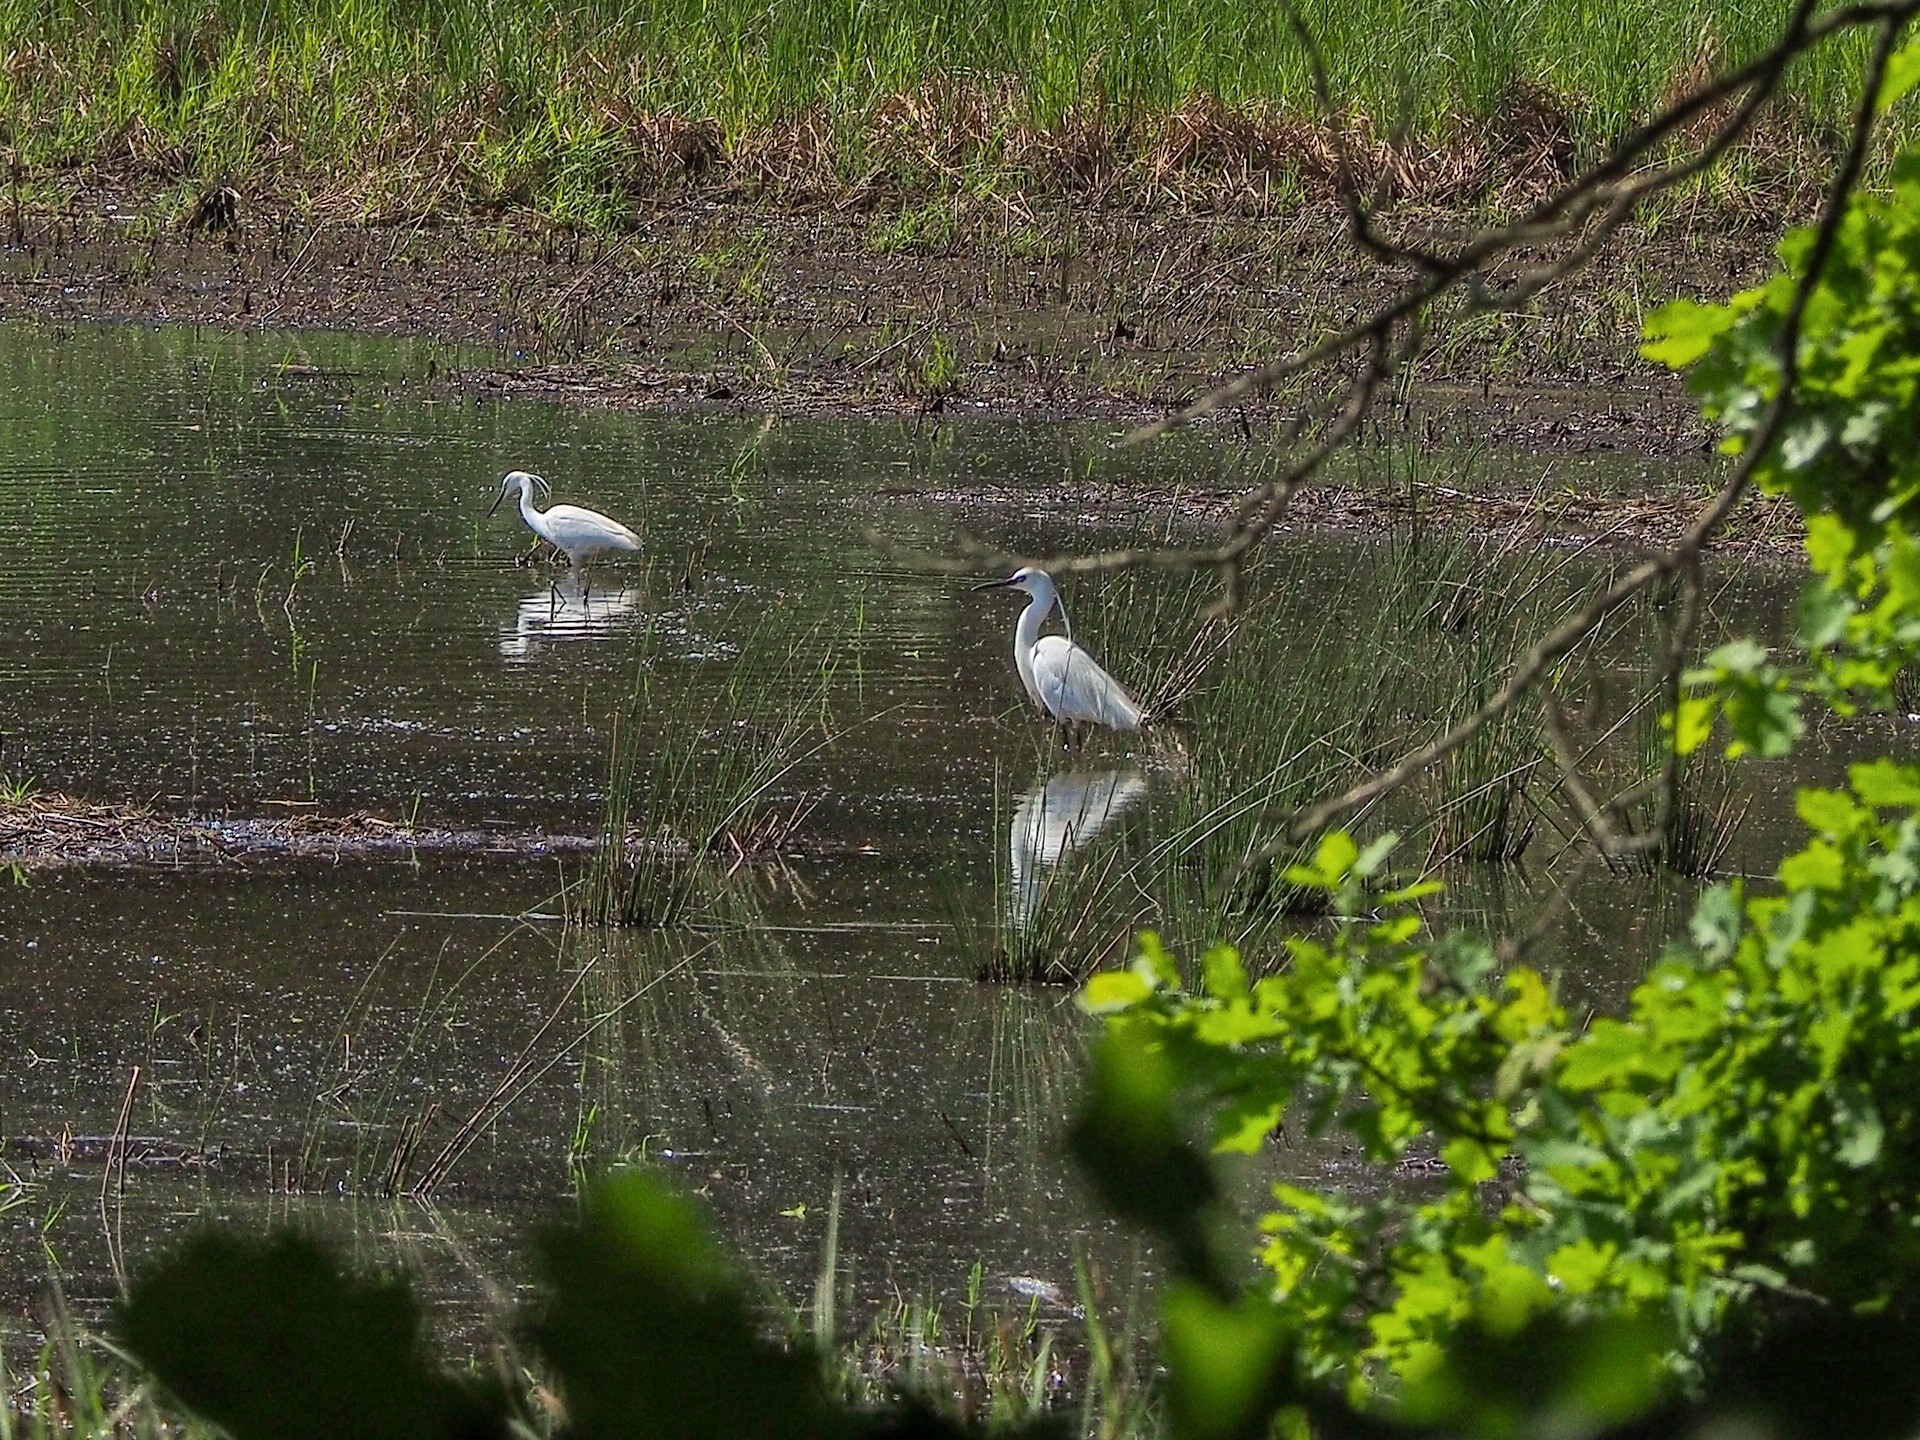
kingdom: Animalia
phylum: Chordata
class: Aves
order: Pelecaniformes
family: Ardeidae
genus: Egretta
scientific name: Egretta garzetta
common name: Little egret
